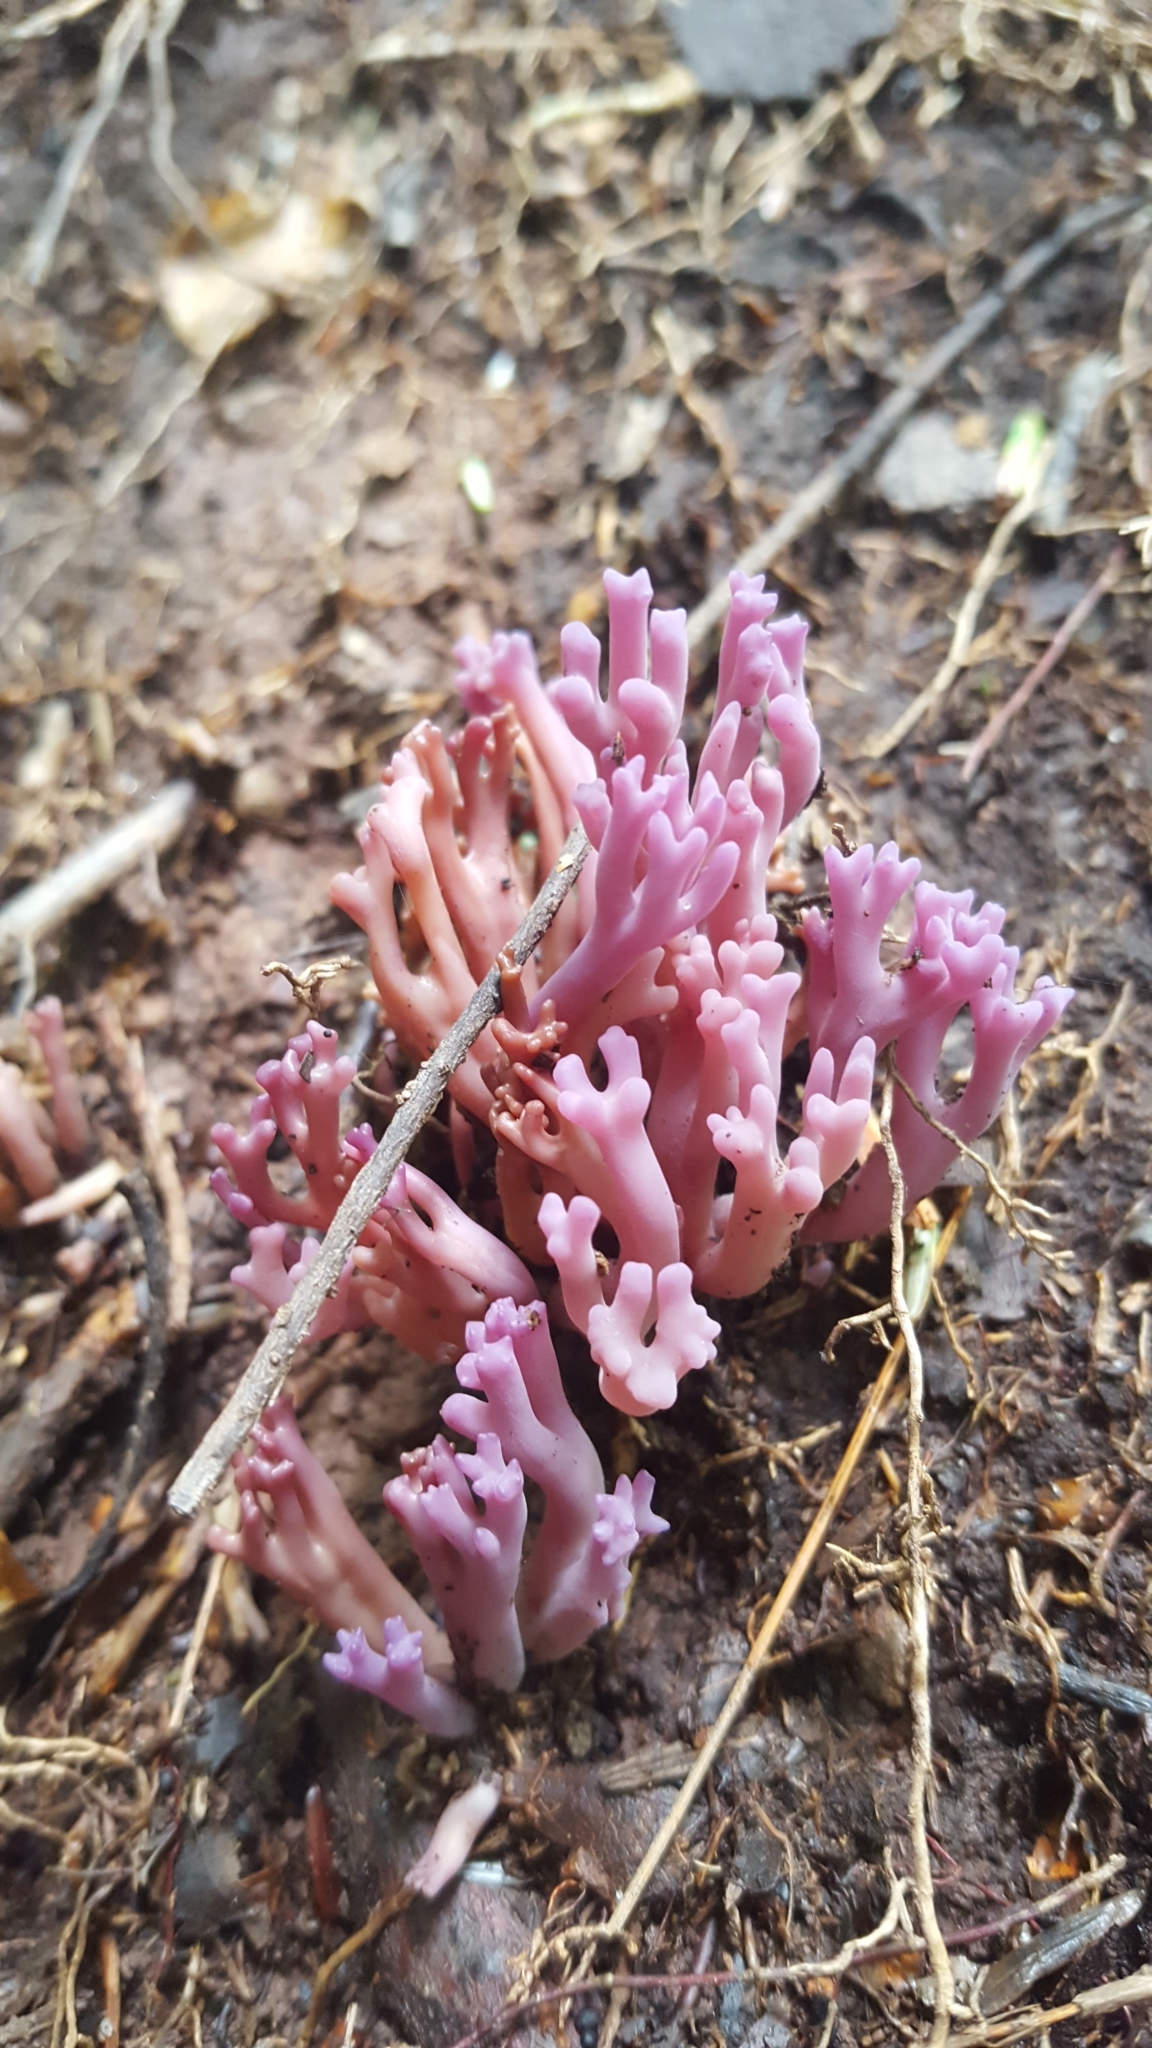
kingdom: Fungi
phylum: Basidiomycota
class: Agaricomycetes
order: Agaricales
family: Clavariaceae
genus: Clavaria
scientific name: Clavaria zollingeri
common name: Violet coral
